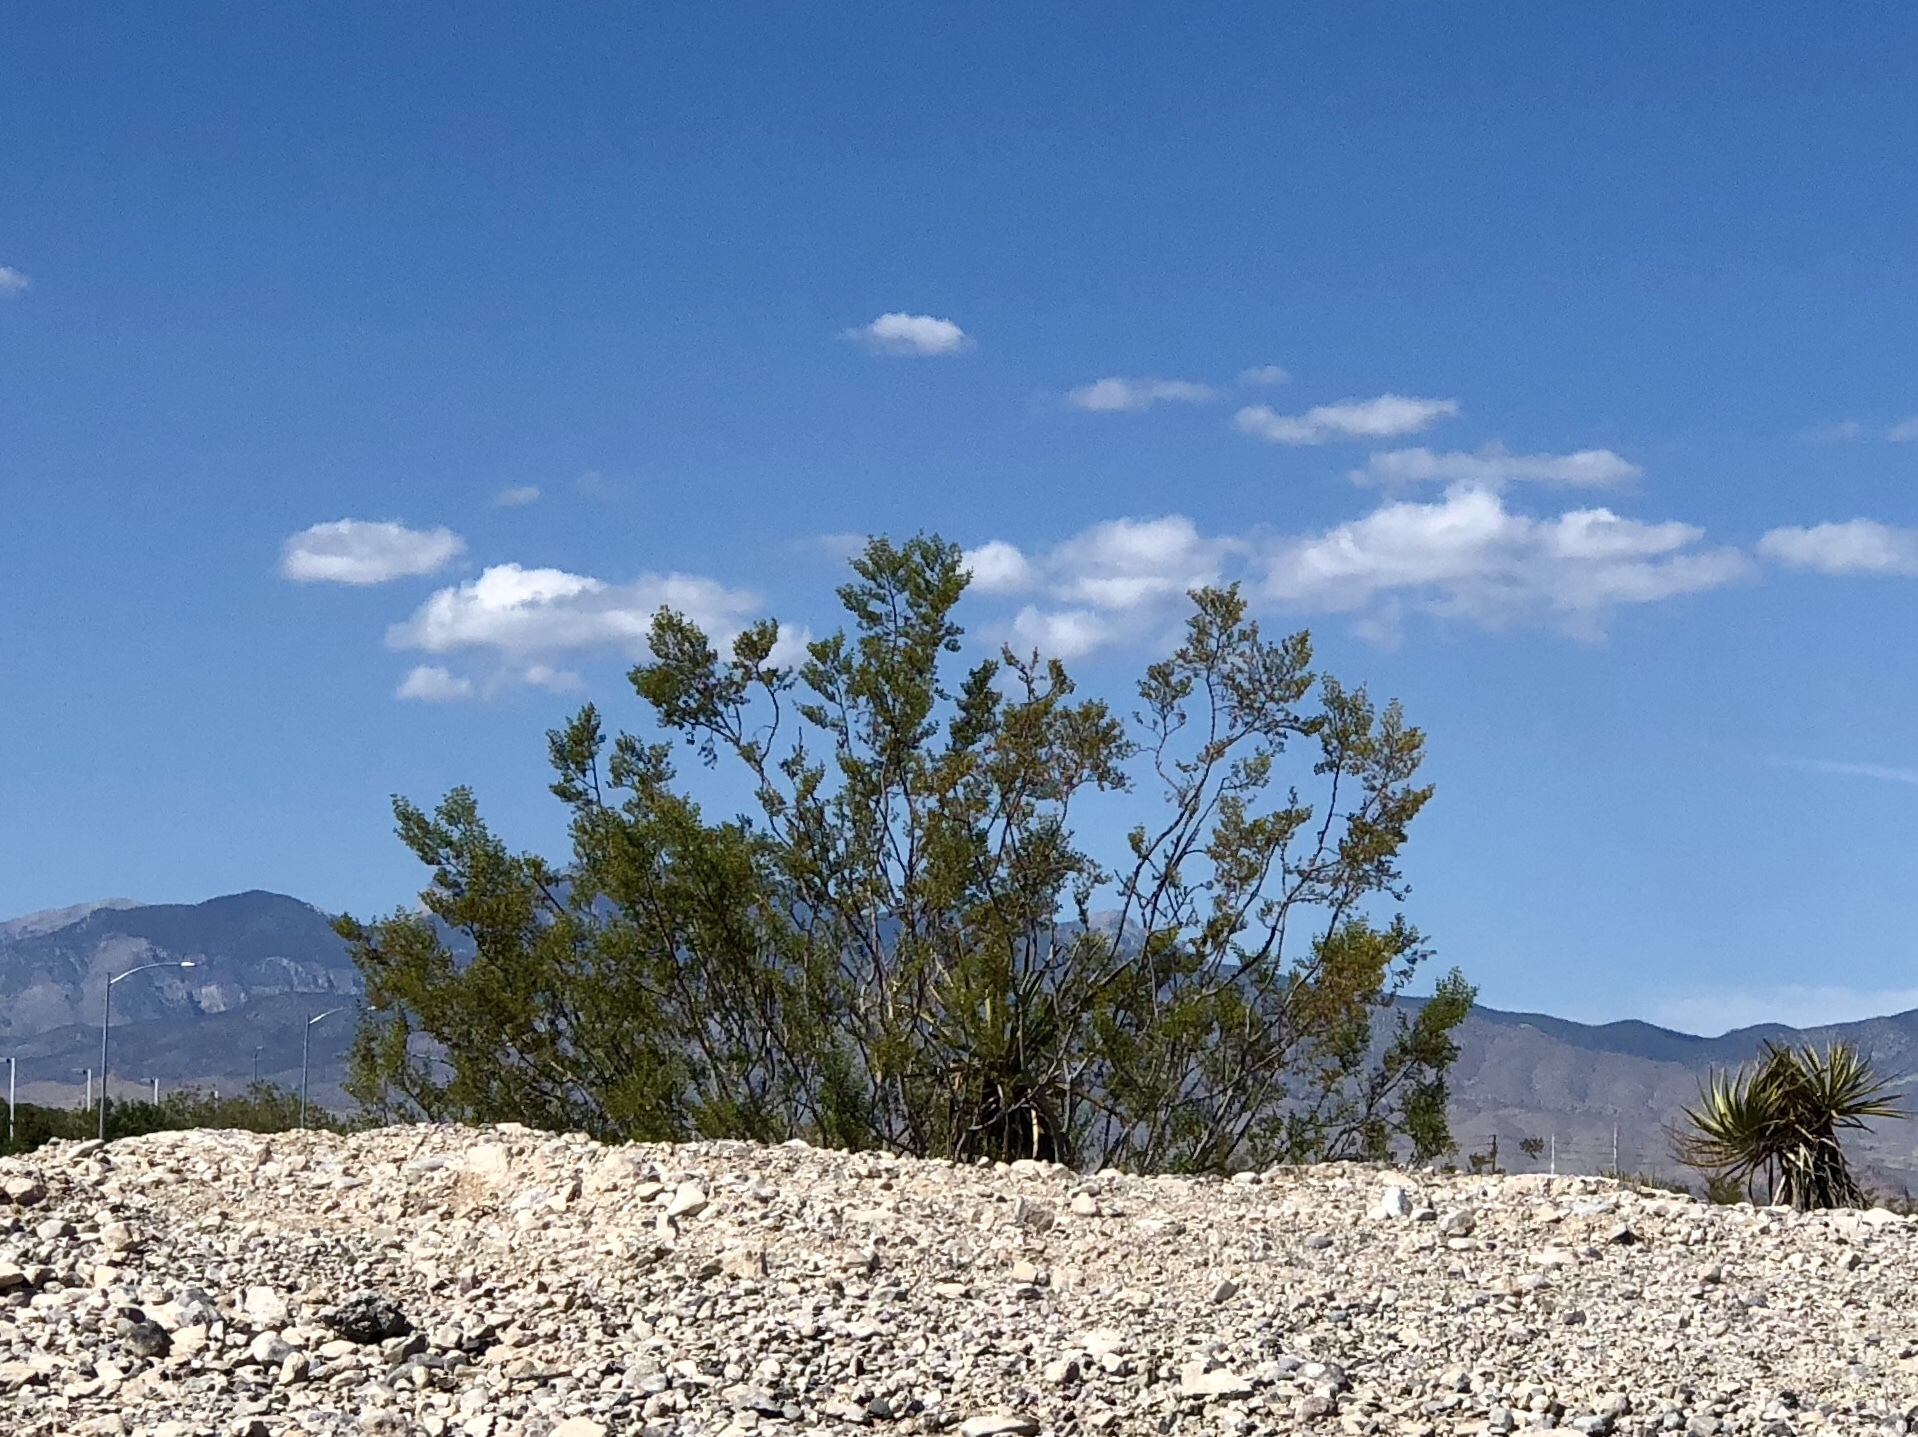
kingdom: Plantae
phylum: Tracheophyta
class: Magnoliopsida
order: Zygophyllales
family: Zygophyllaceae
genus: Larrea
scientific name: Larrea tridentata
